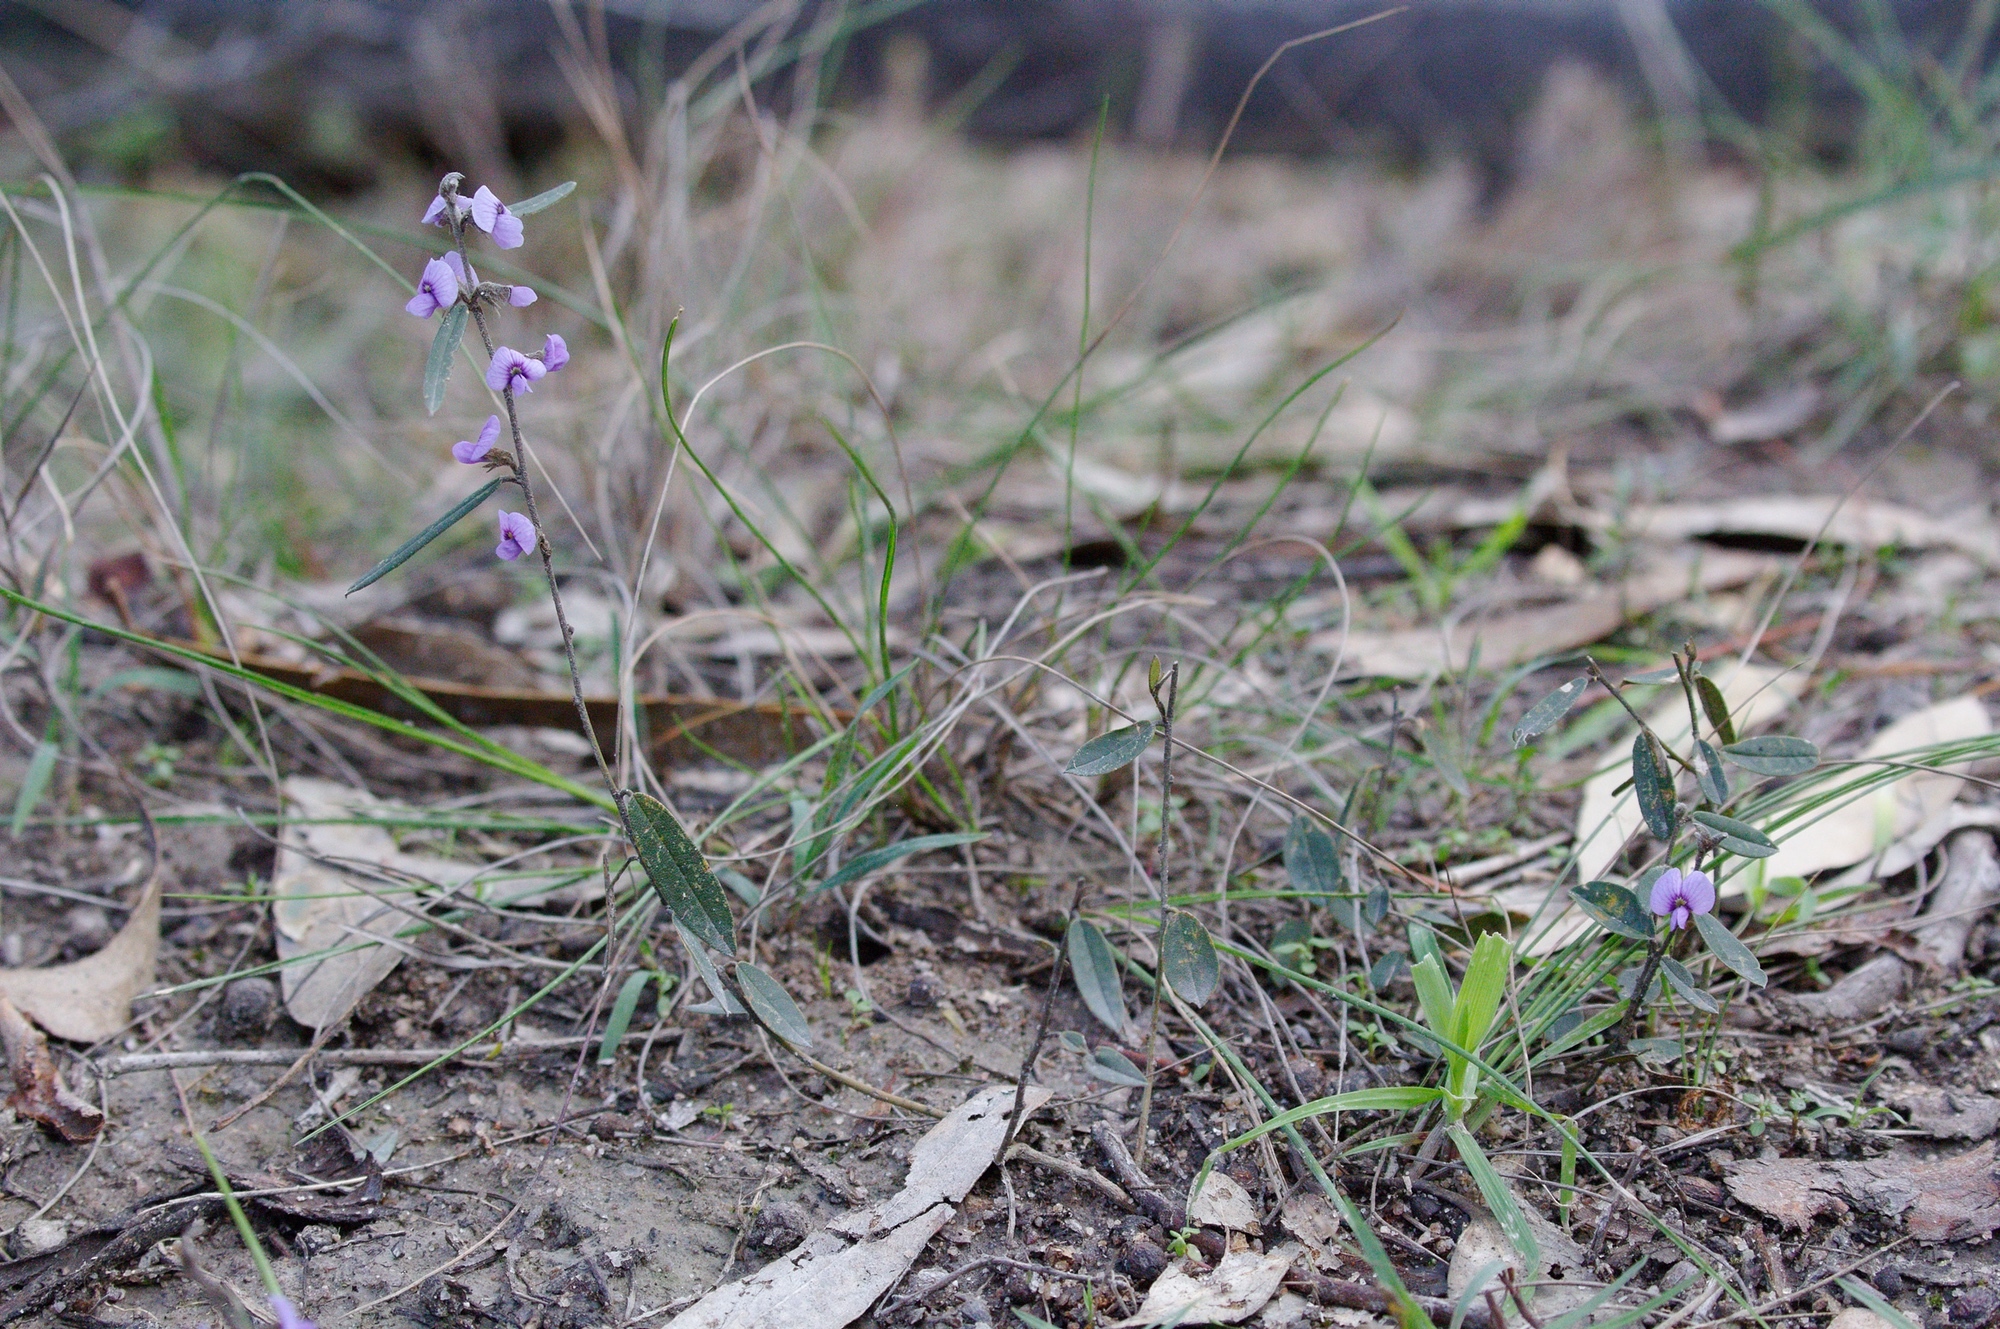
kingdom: Plantae
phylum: Tracheophyta
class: Magnoliopsida
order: Fabales
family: Fabaceae
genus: Hovea
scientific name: Hovea heterophylla
